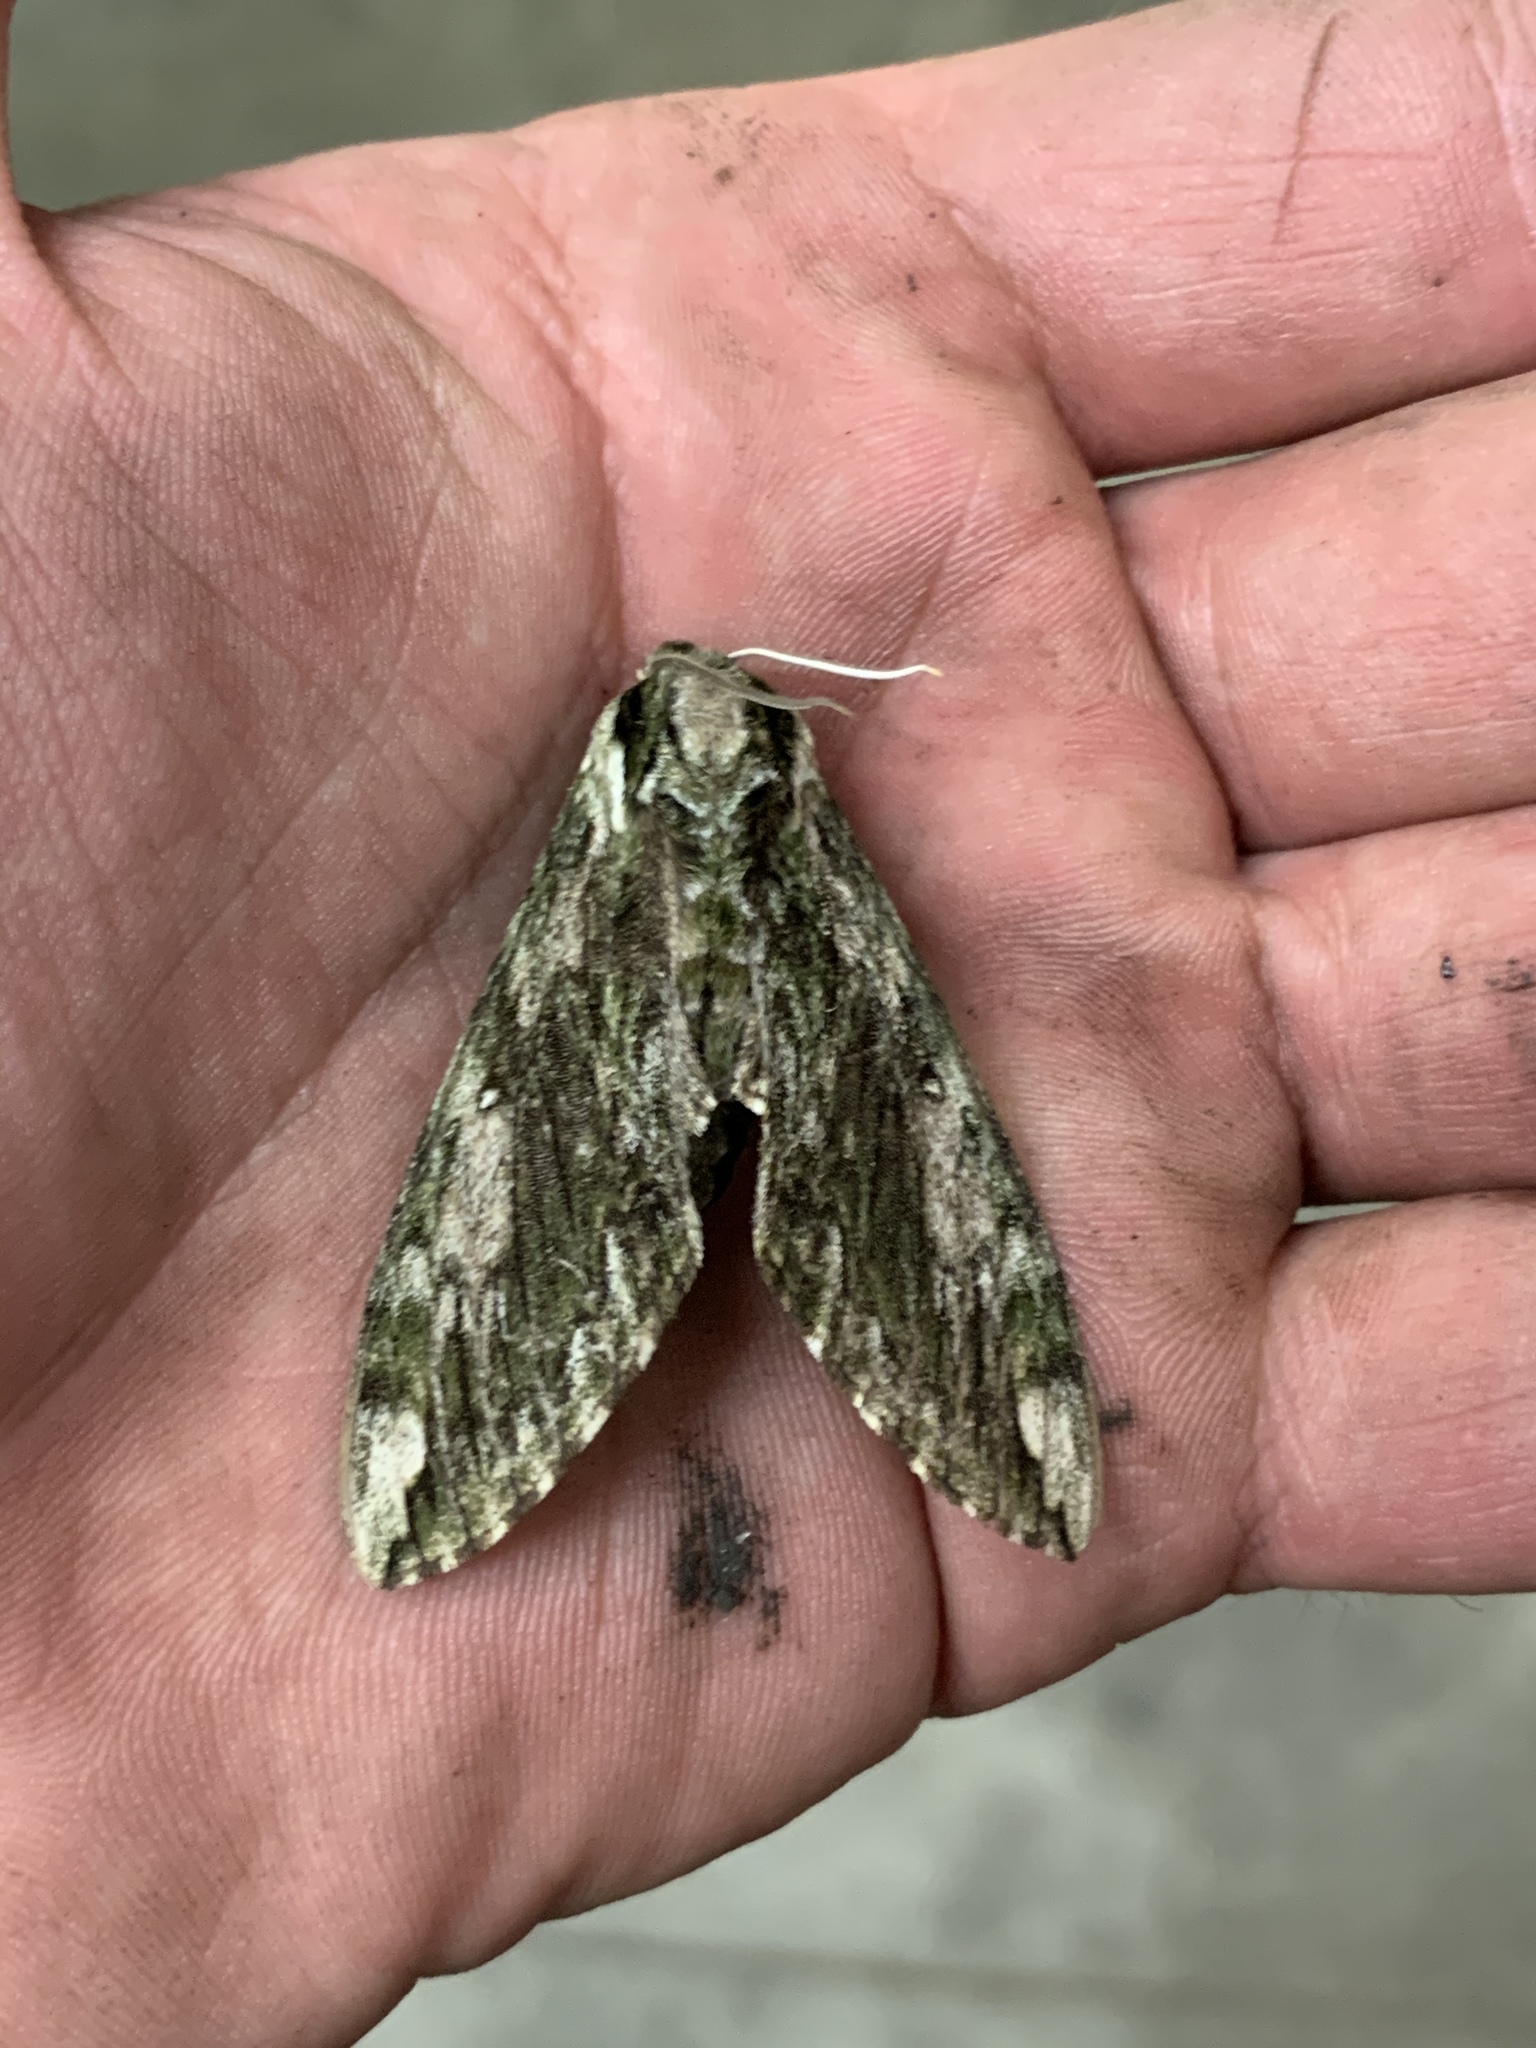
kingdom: Animalia
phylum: Arthropoda
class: Insecta
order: Lepidoptera
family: Sphingidae
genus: Ceratomia
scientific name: Ceratomia hageni
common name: Hagen's sphinx
